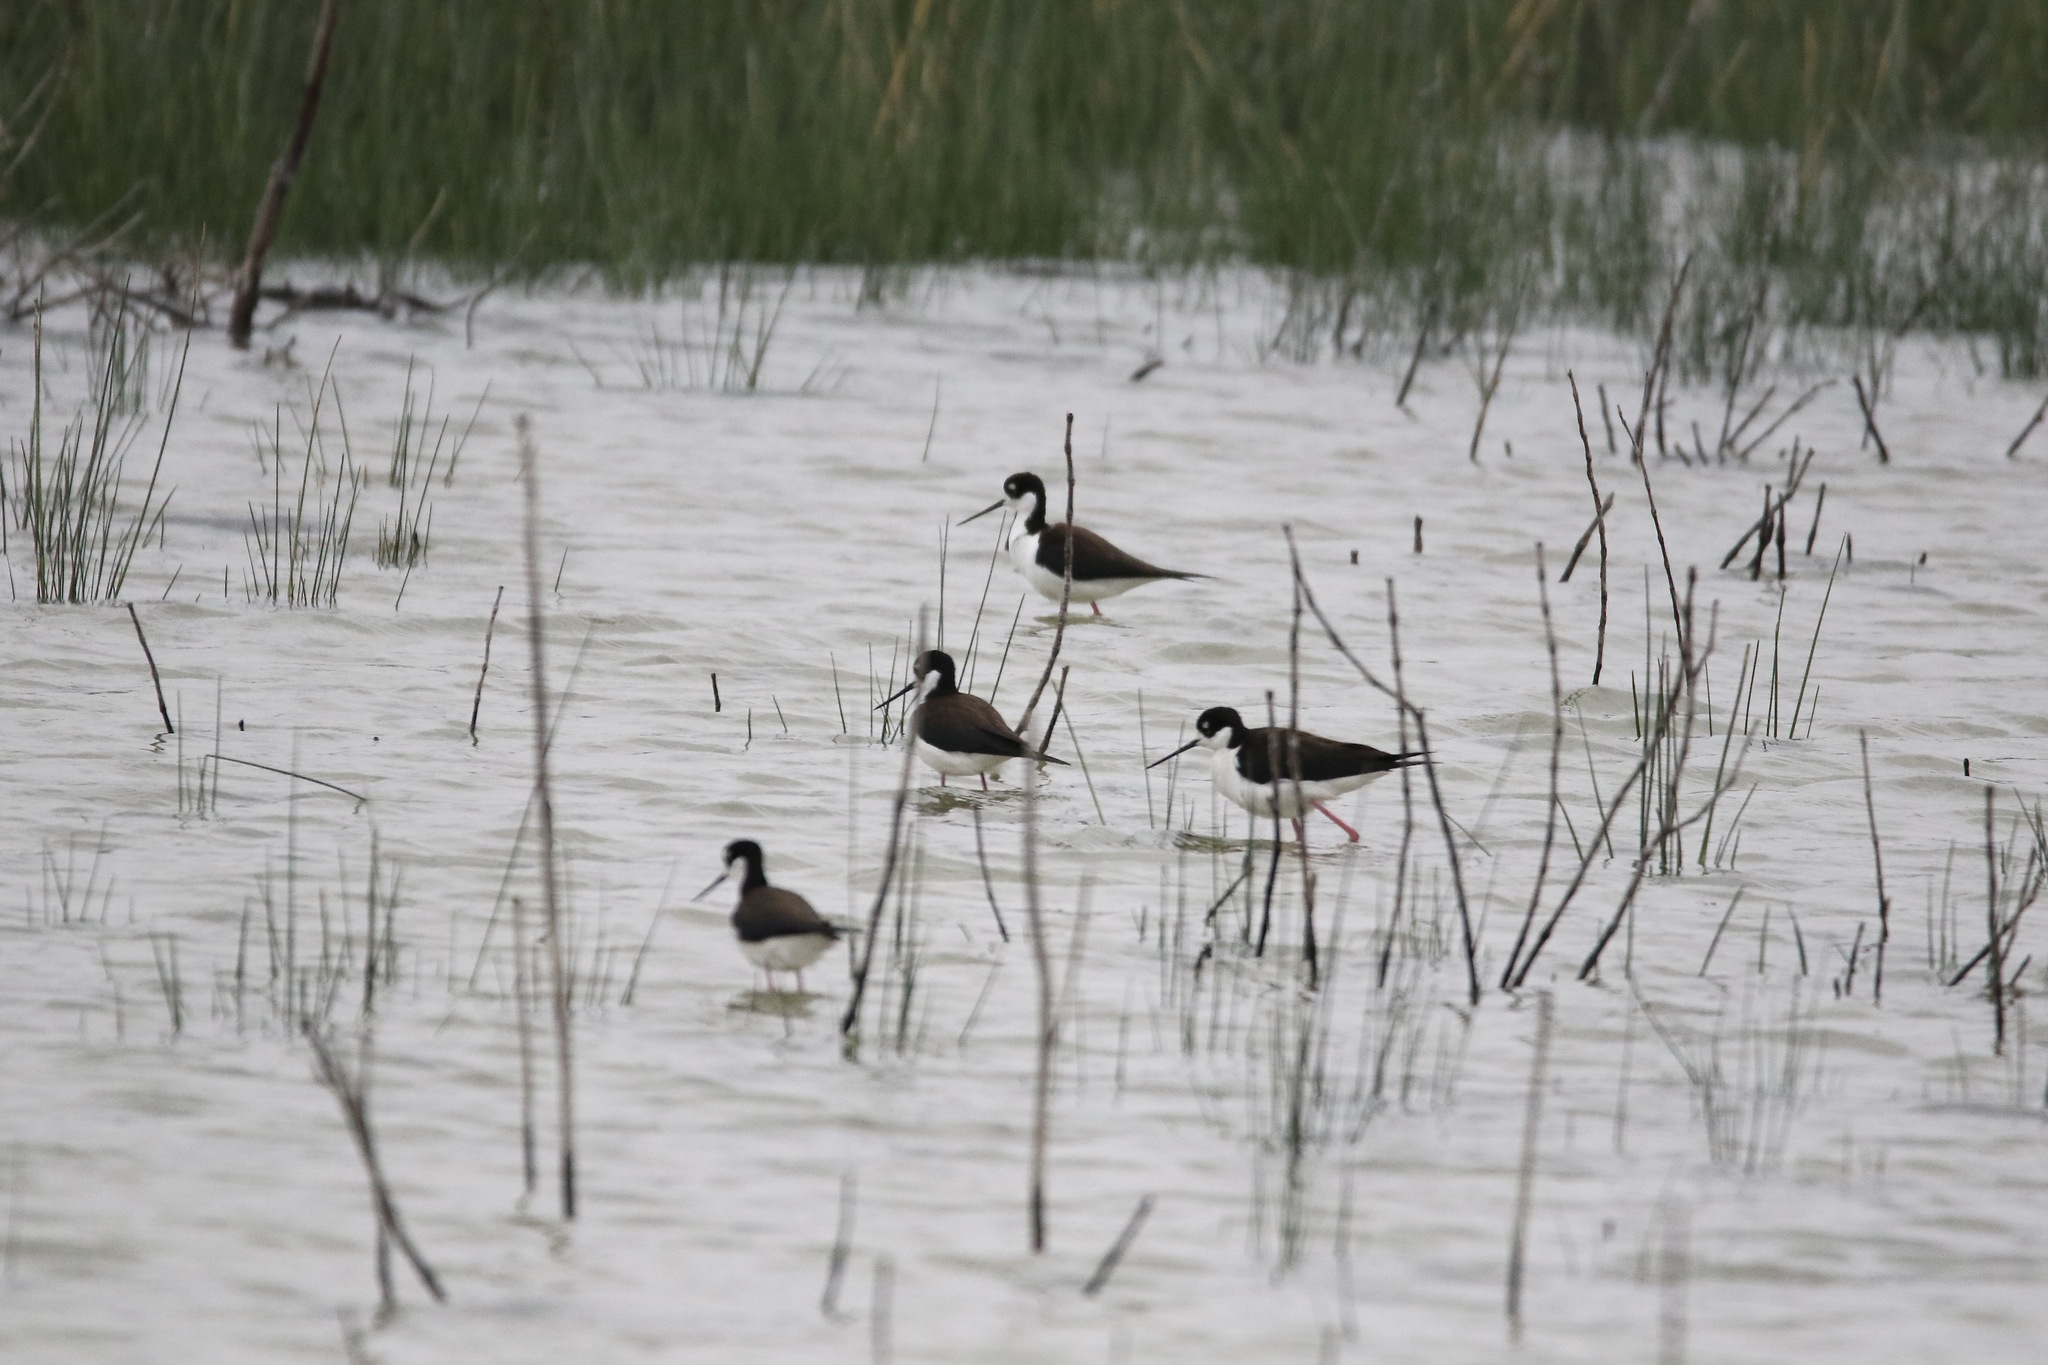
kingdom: Animalia
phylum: Chordata
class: Aves
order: Charadriiformes
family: Recurvirostridae
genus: Himantopus
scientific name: Himantopus mexicanus
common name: Black-necked stilt
